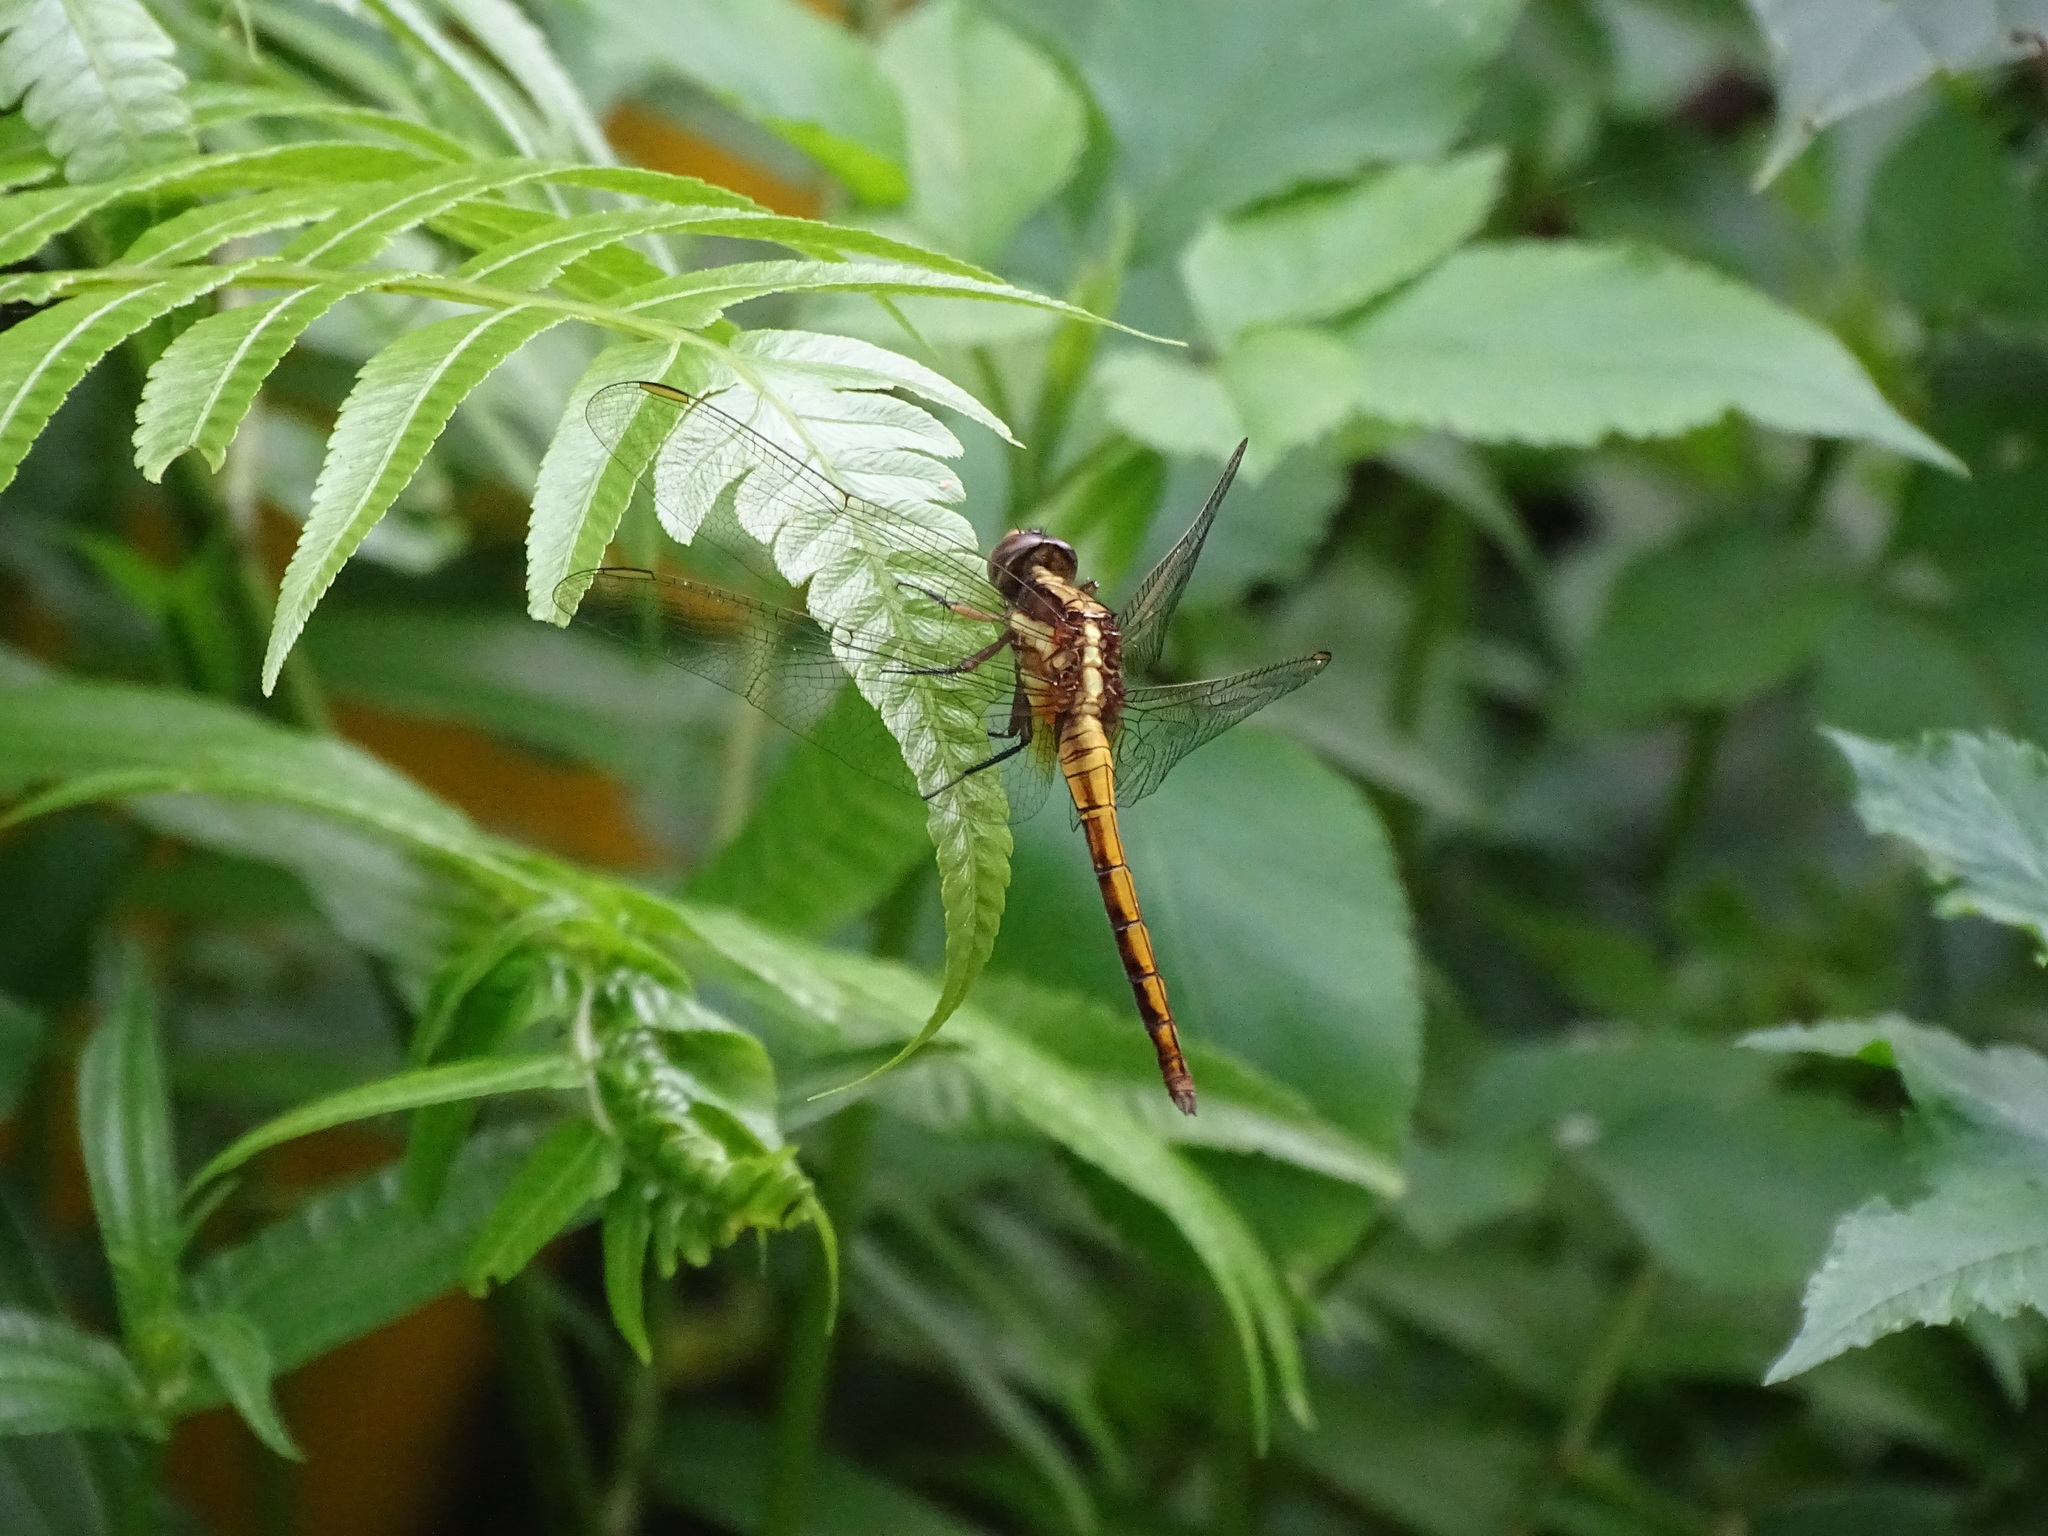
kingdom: Animalia
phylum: Arthropoda
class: Insecta
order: Odonata
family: Libellulidae
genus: Orthetrum
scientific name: Orthetrum glaucum
